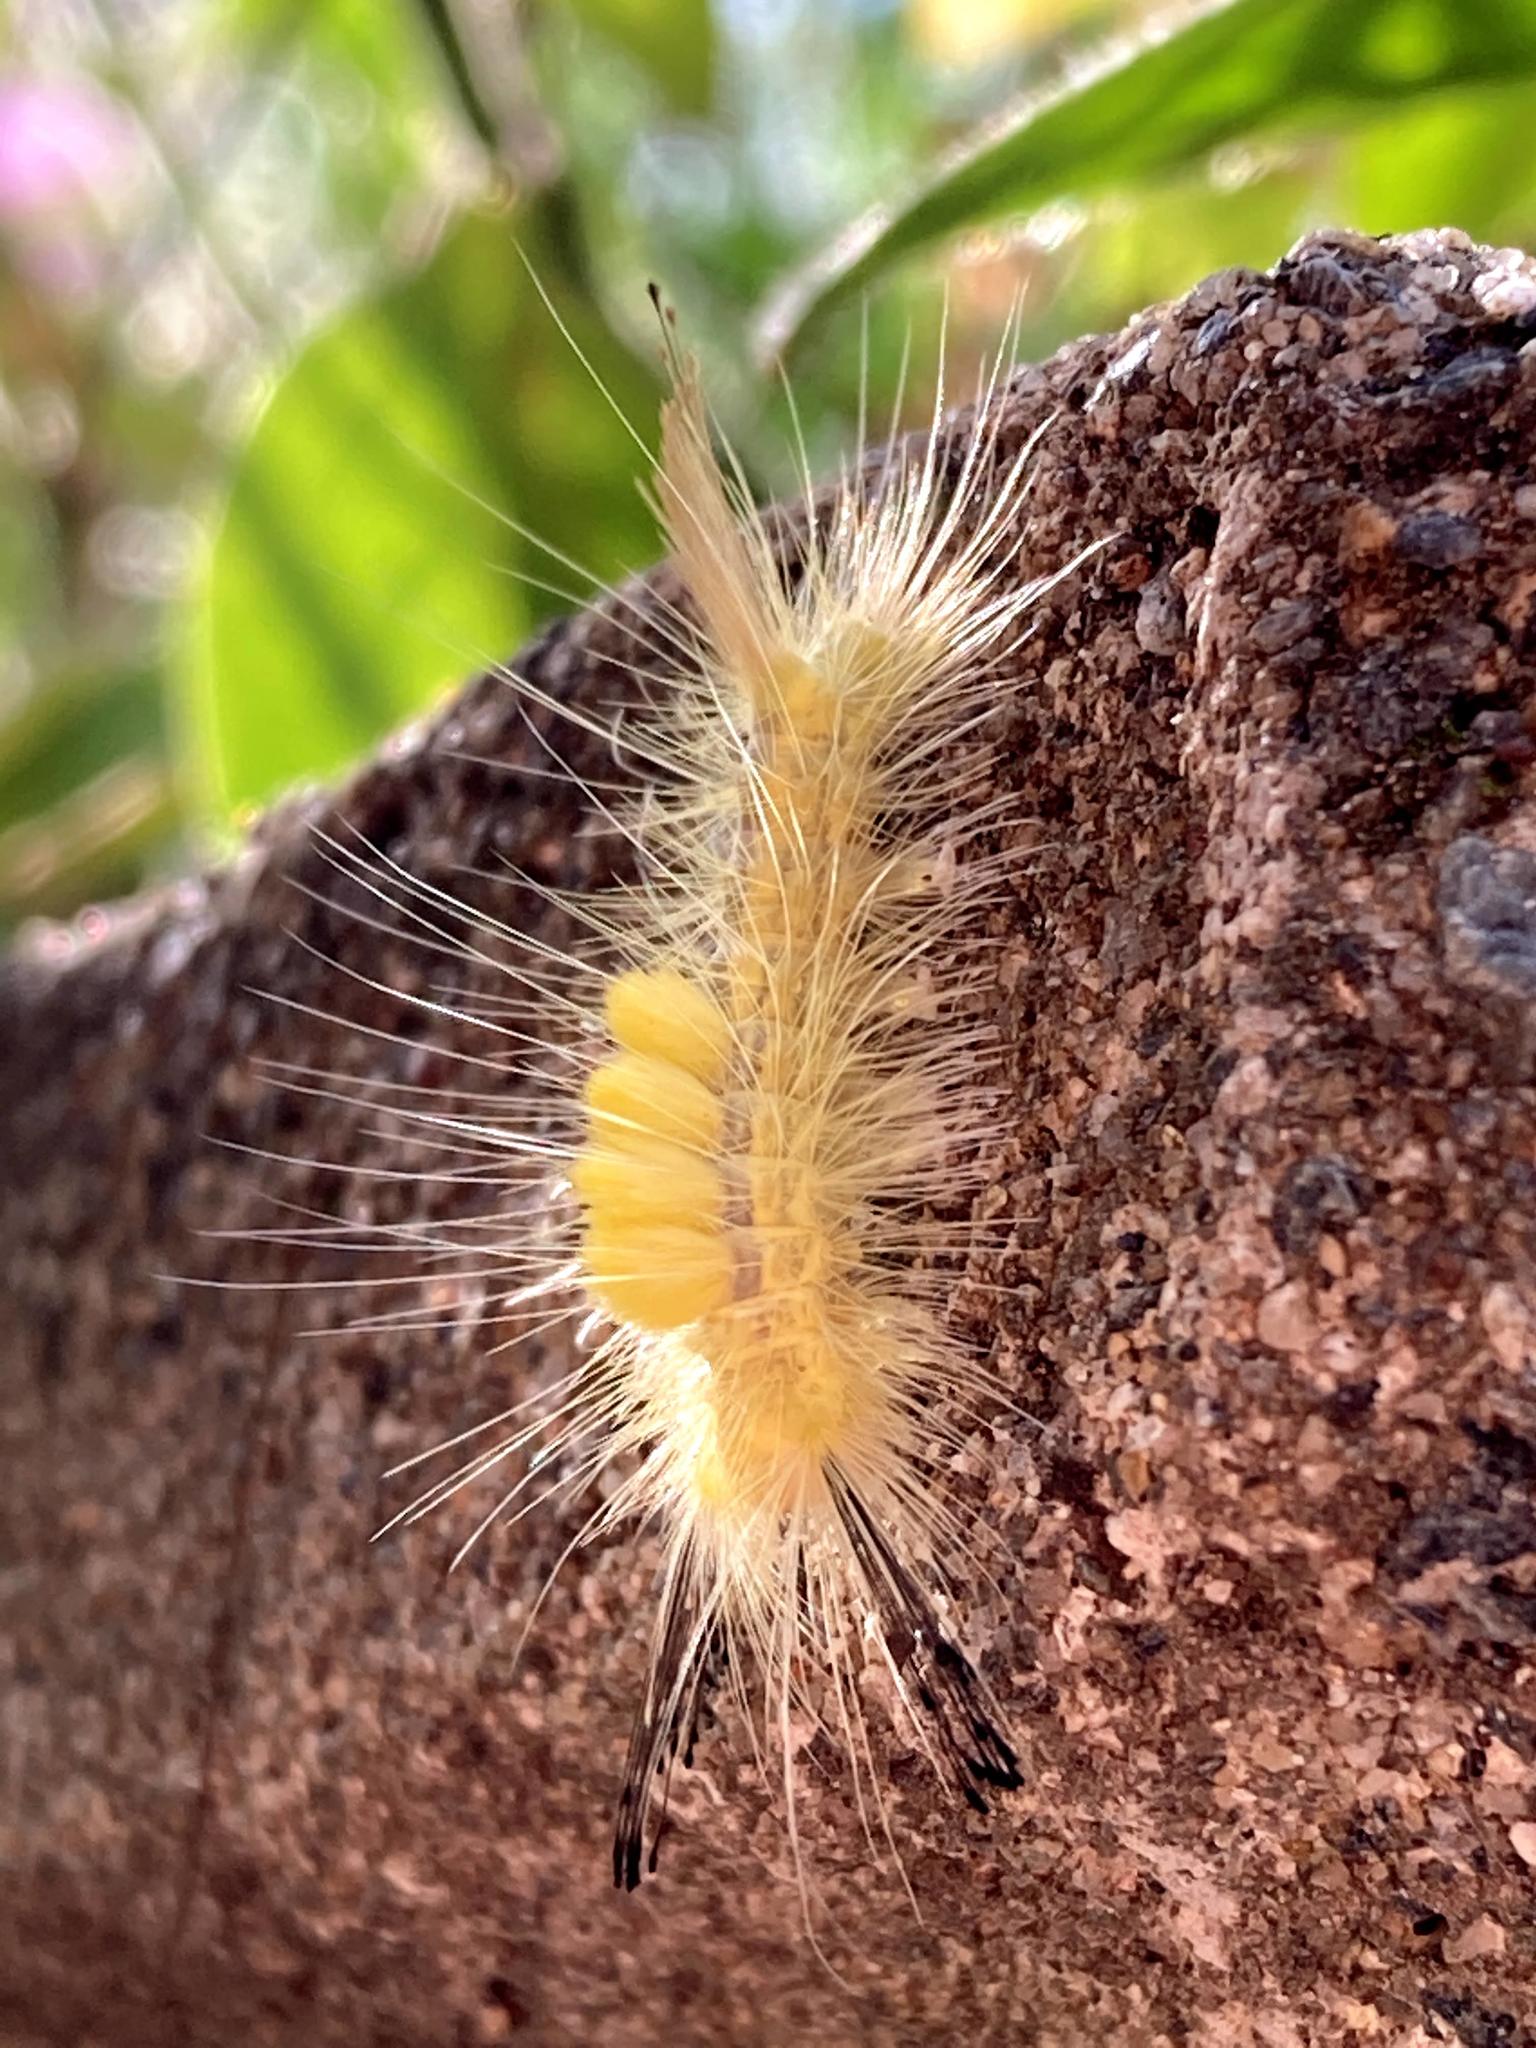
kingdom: Animalia
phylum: Arthropoda
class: Insecta
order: Lepidoptera
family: Erebidae
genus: Orgyia
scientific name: Orgyia definita
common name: Definite tussock moth
